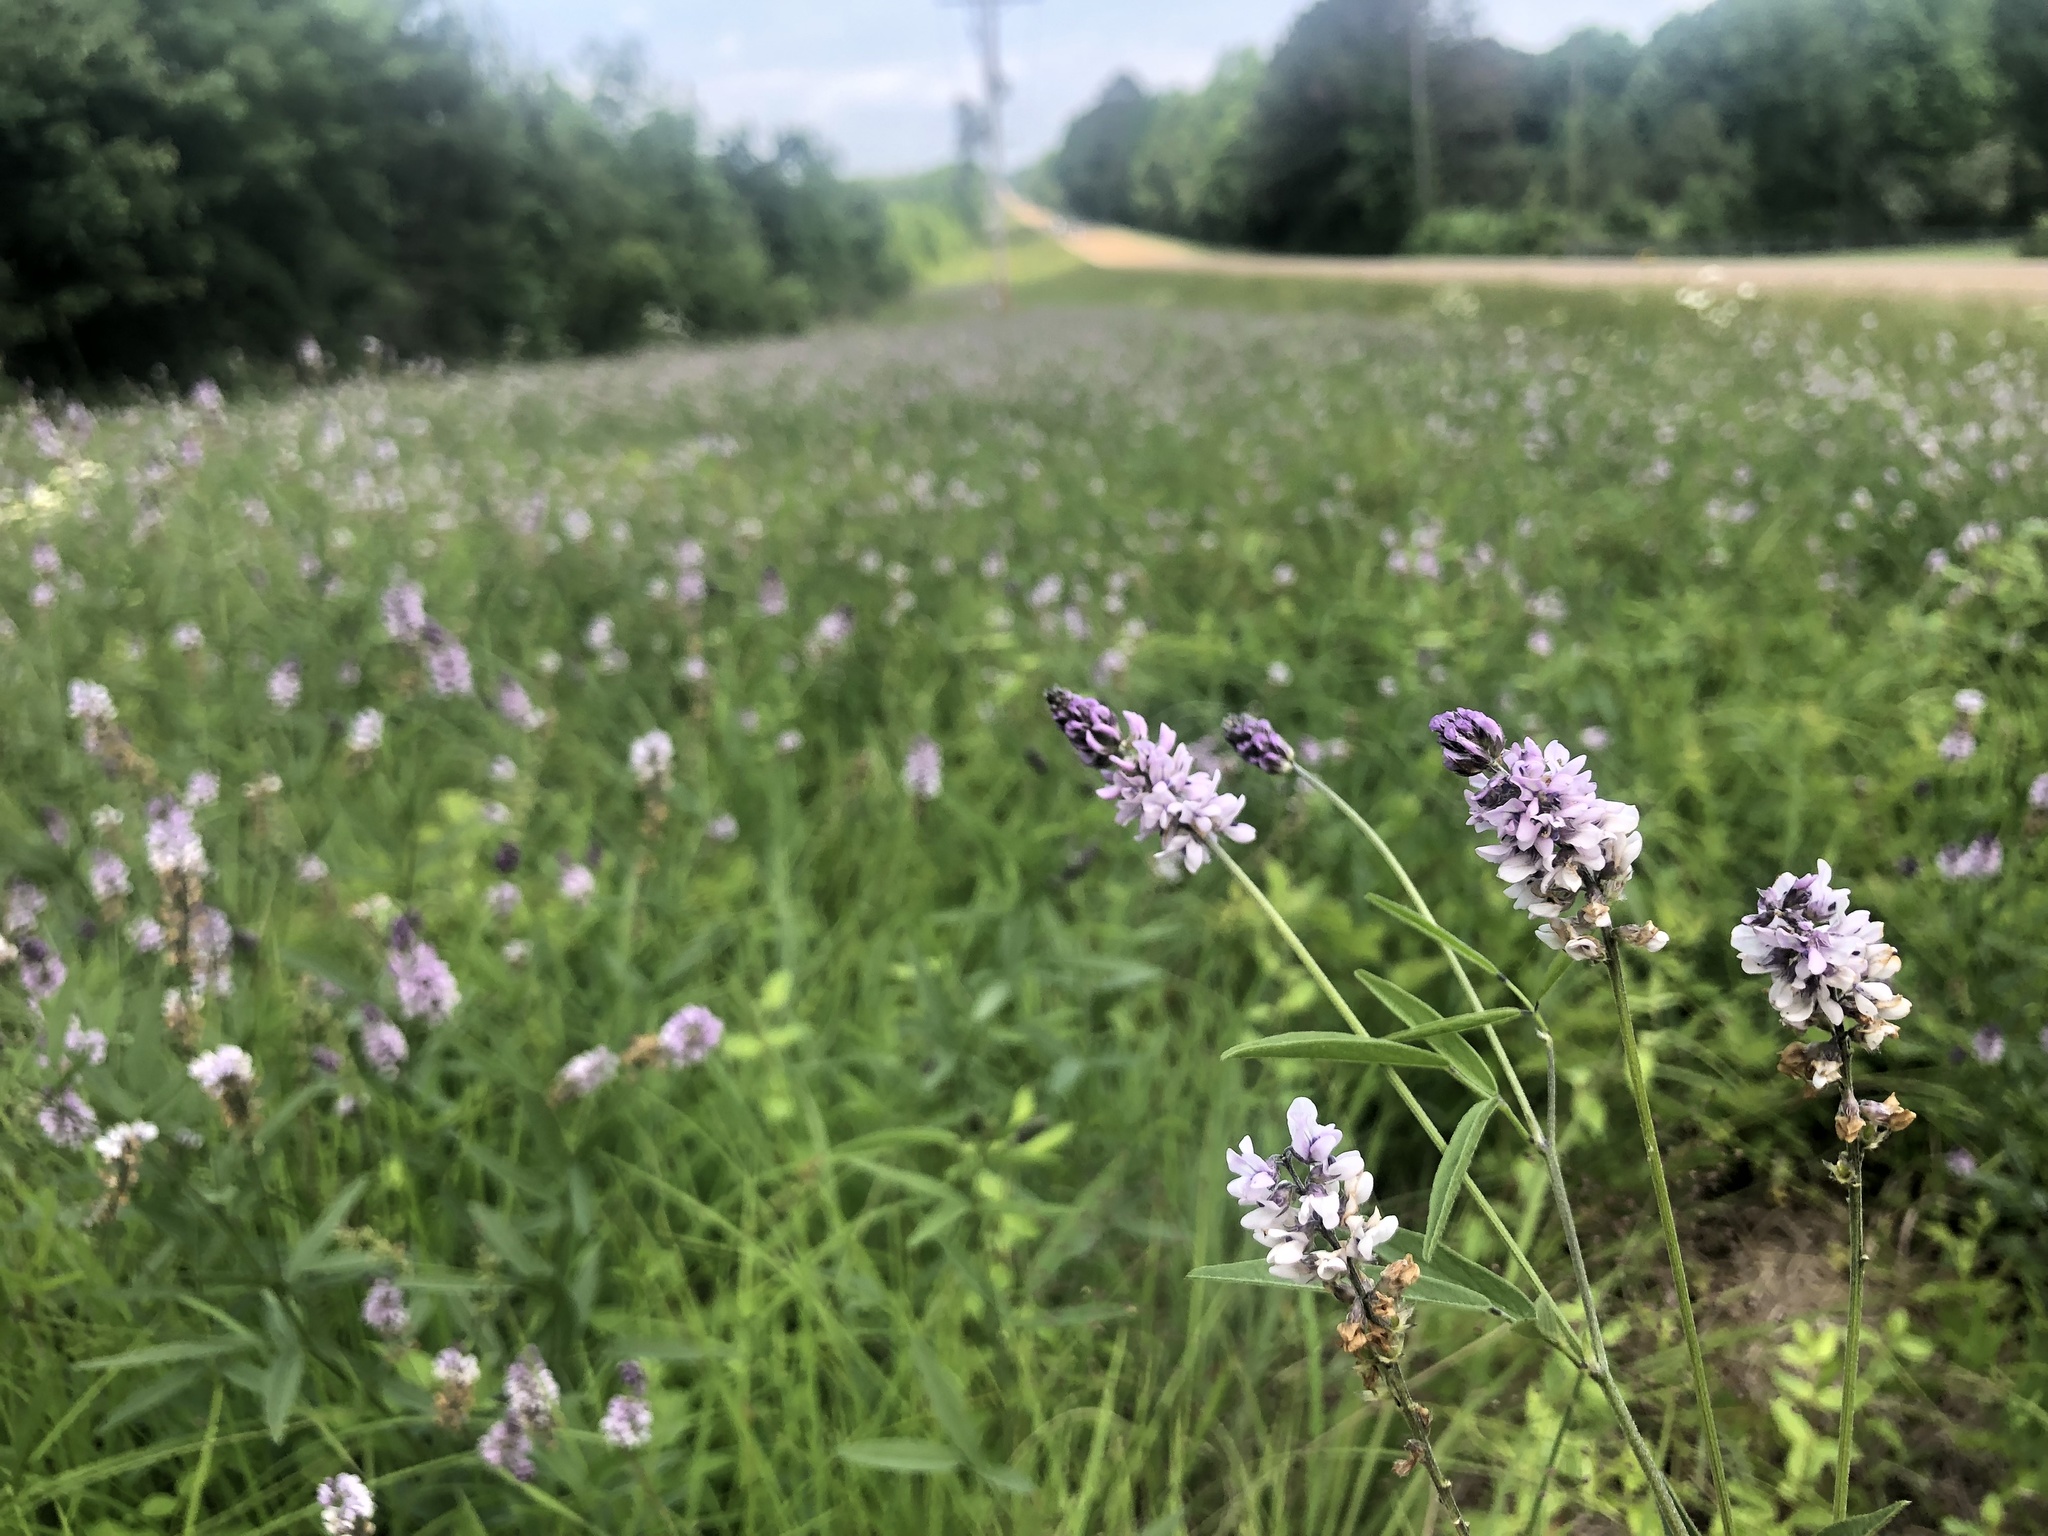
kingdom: Plantae
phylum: Tracheophyta
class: Magnoliopsida
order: Fabales
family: Fabaceae
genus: Orbexilum
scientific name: Orbexilum pedunculatum
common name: Sampson's snakeroot
